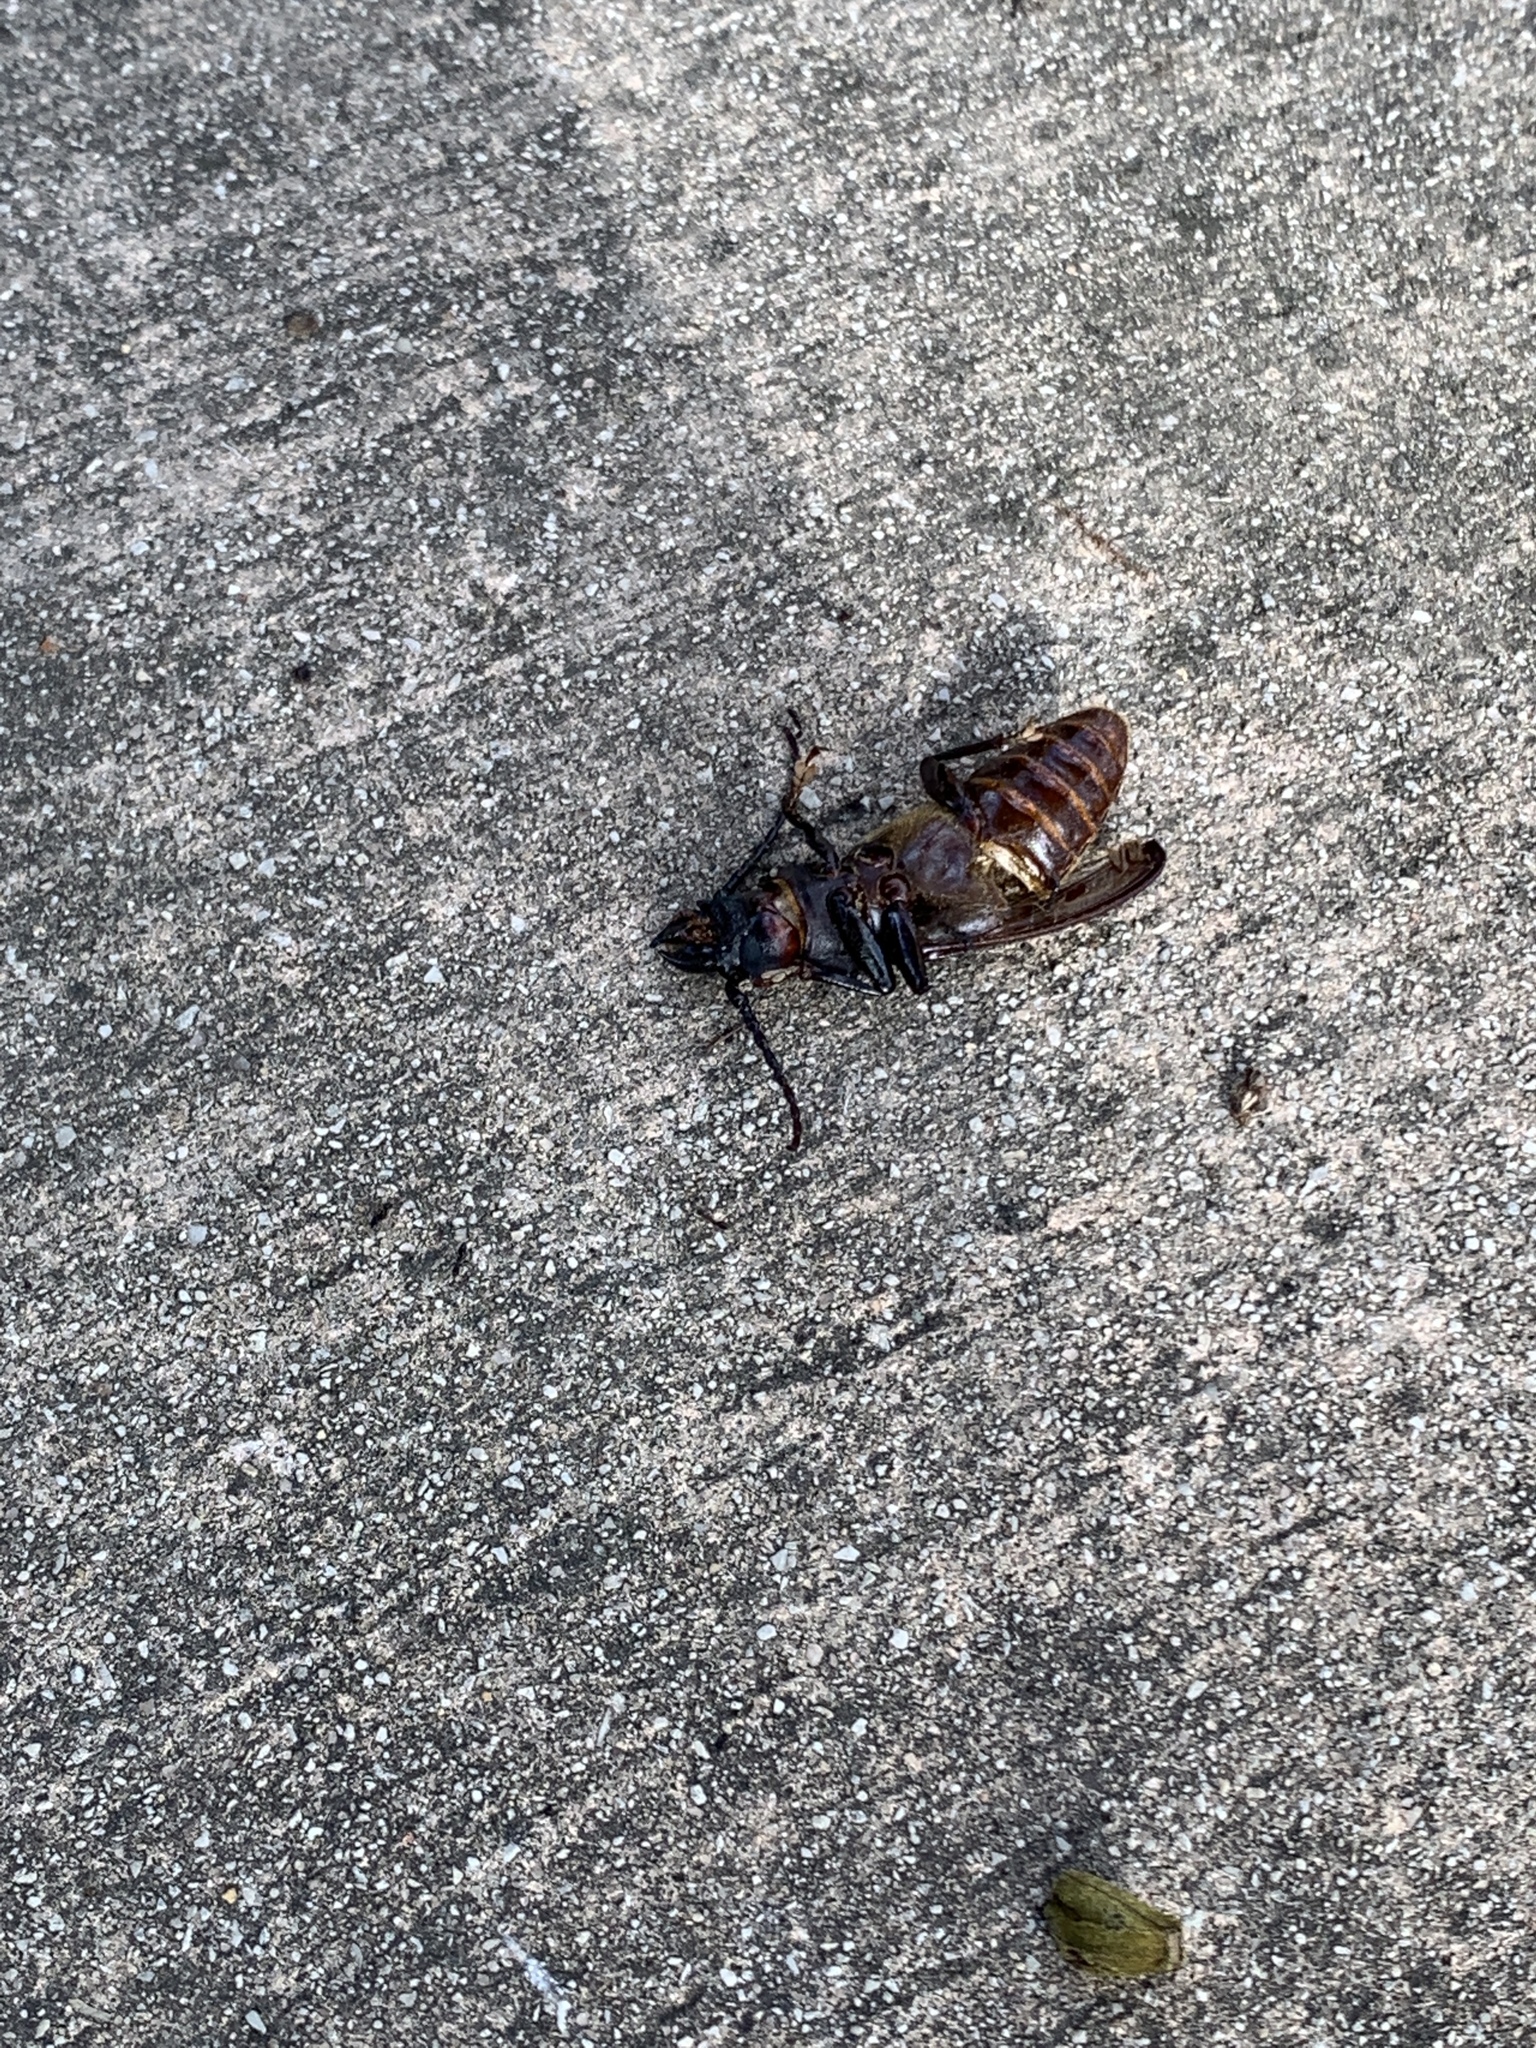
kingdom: Animalia
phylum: Arthropoda
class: Insecta
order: Coleoptera
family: Cerambycidae
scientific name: Cerambycidae
